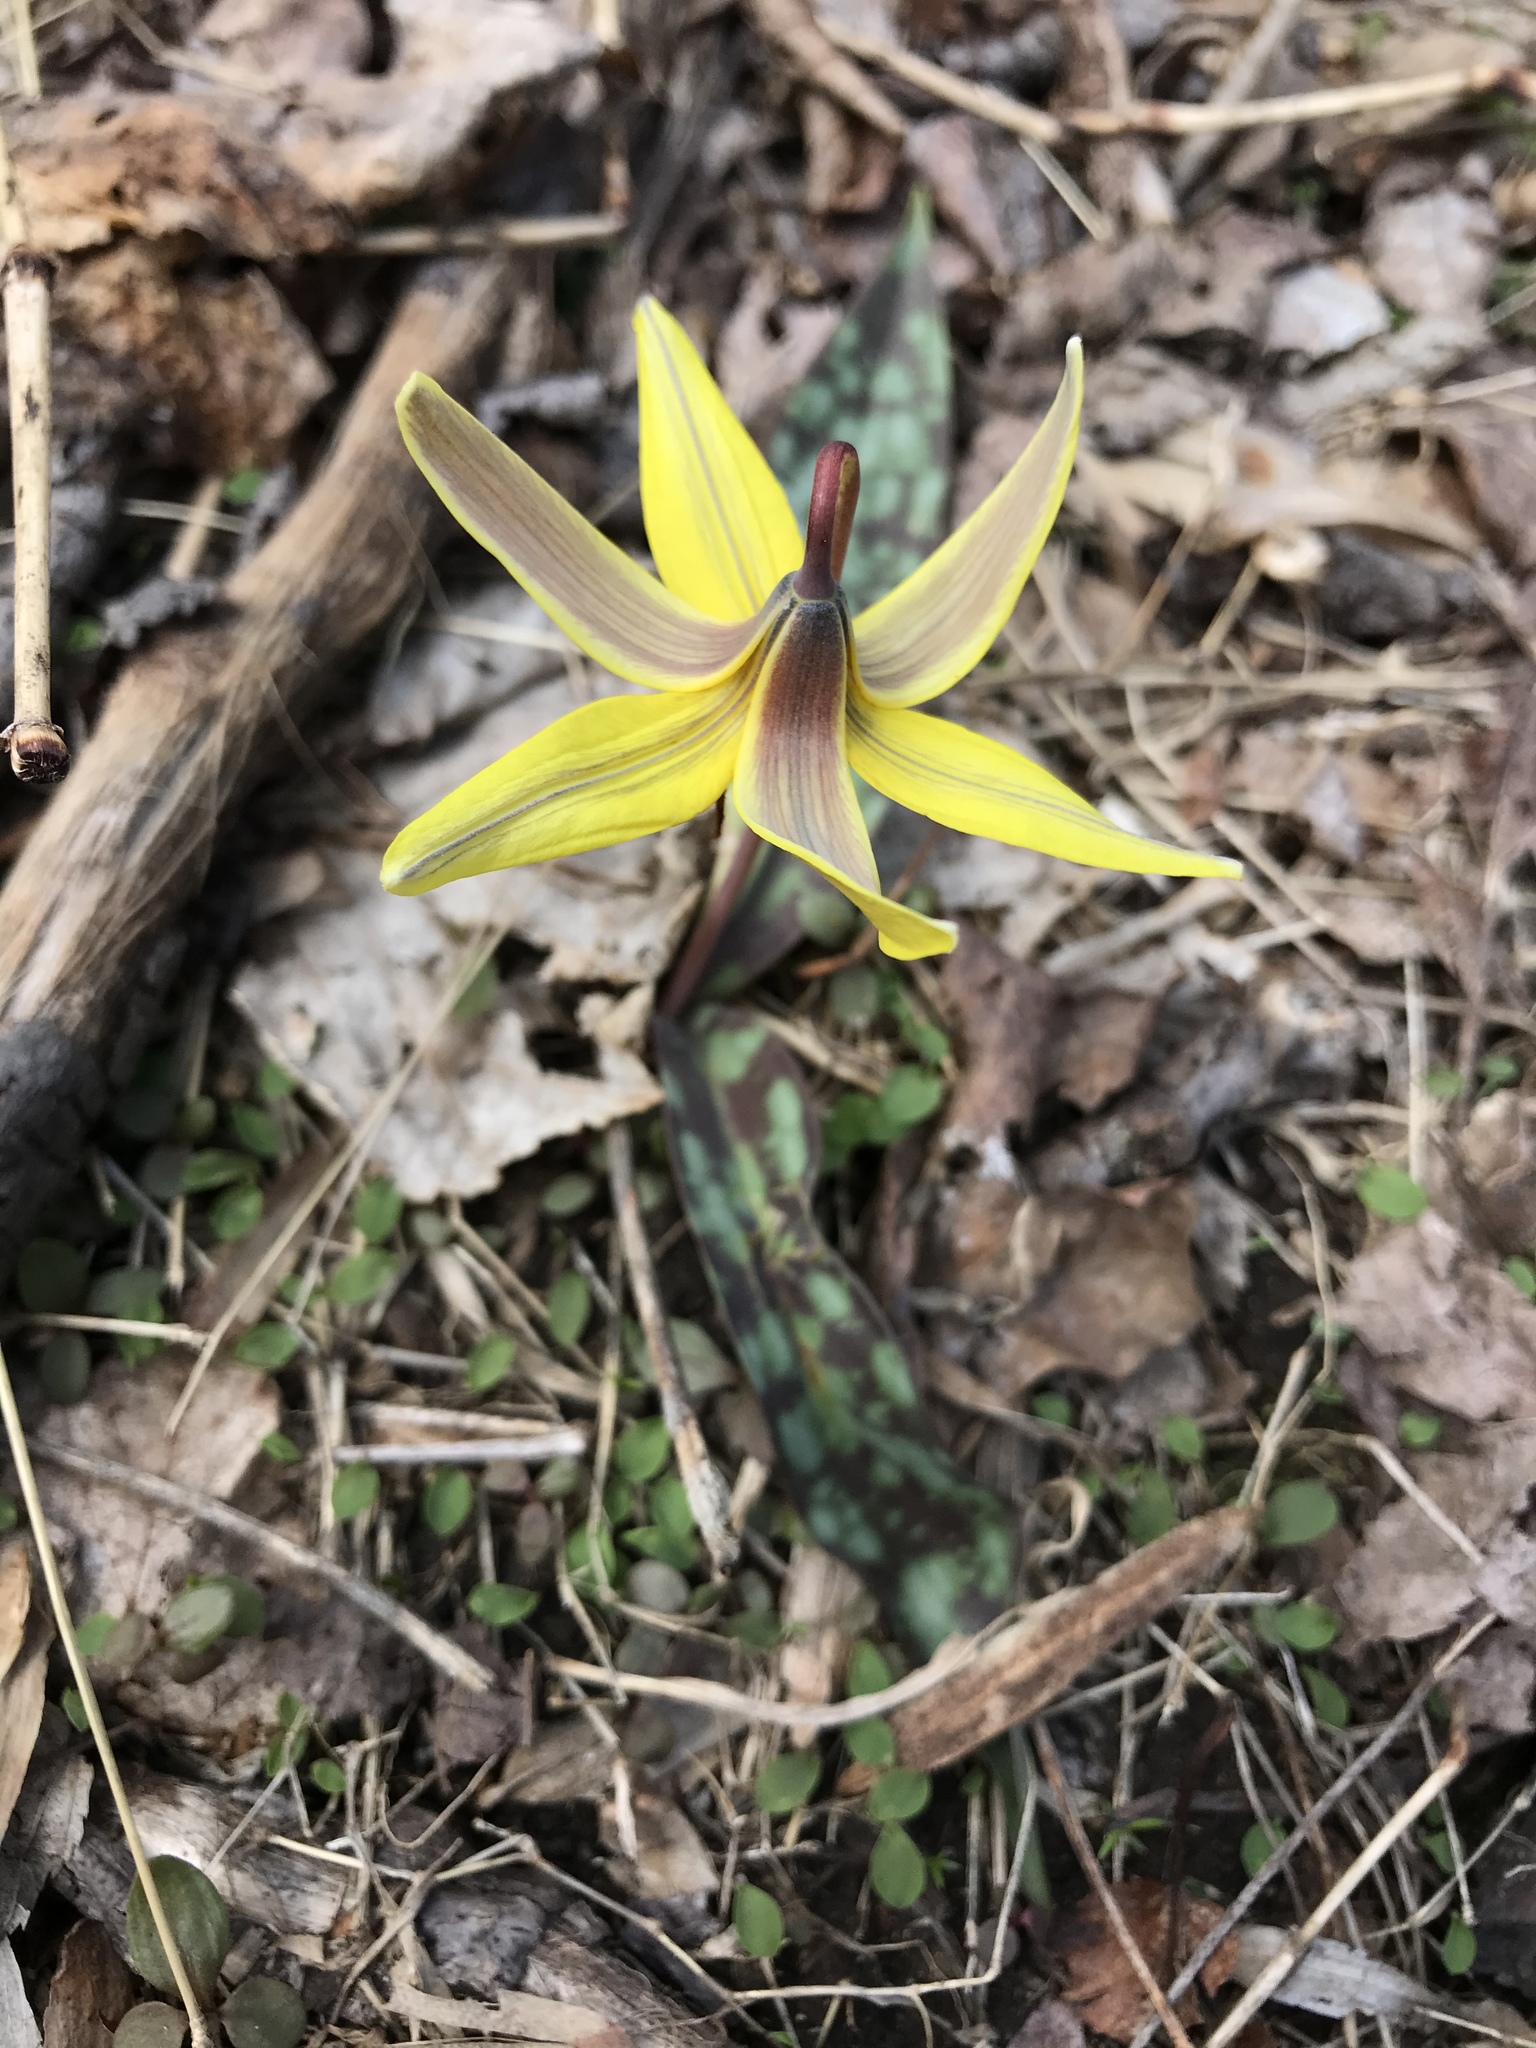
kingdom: Plantae
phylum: Tracheophyta
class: Liliopsida
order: Liliales
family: Liliaceae
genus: Erythronium
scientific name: Erythronium americanum
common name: Yellow adder's-tongue
